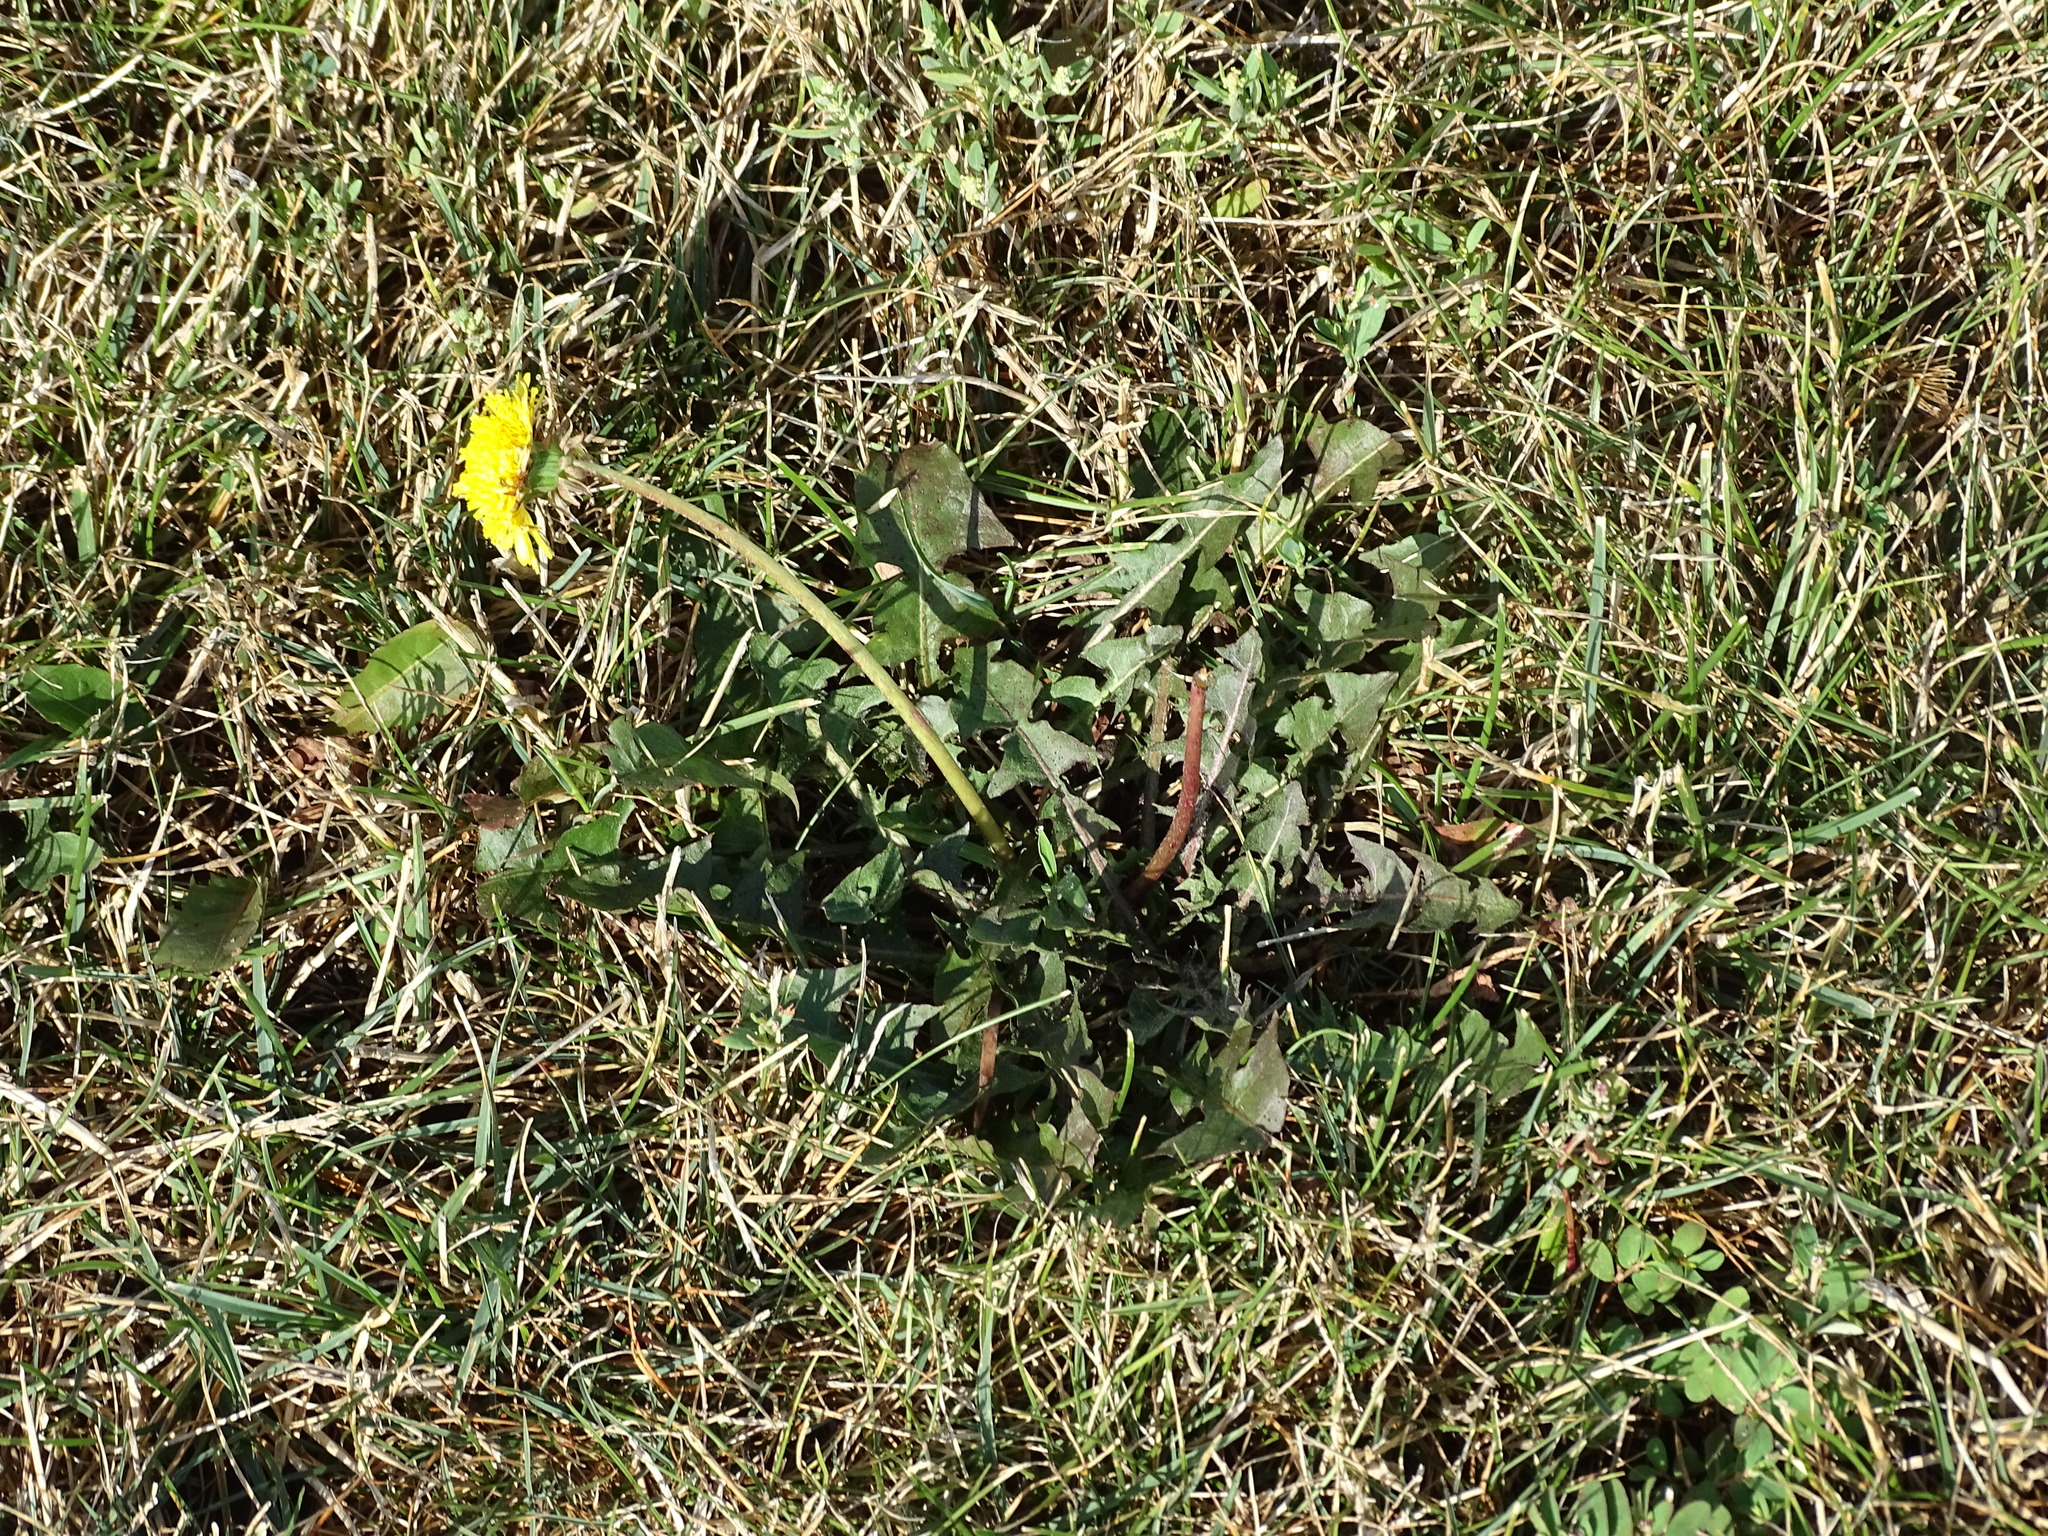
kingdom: Plantae
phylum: Tracheophyta
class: Magnoliopsida
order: Asterales
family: Asteraceae
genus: Taraxacum
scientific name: Taraxacum officinale
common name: Common dandelion
